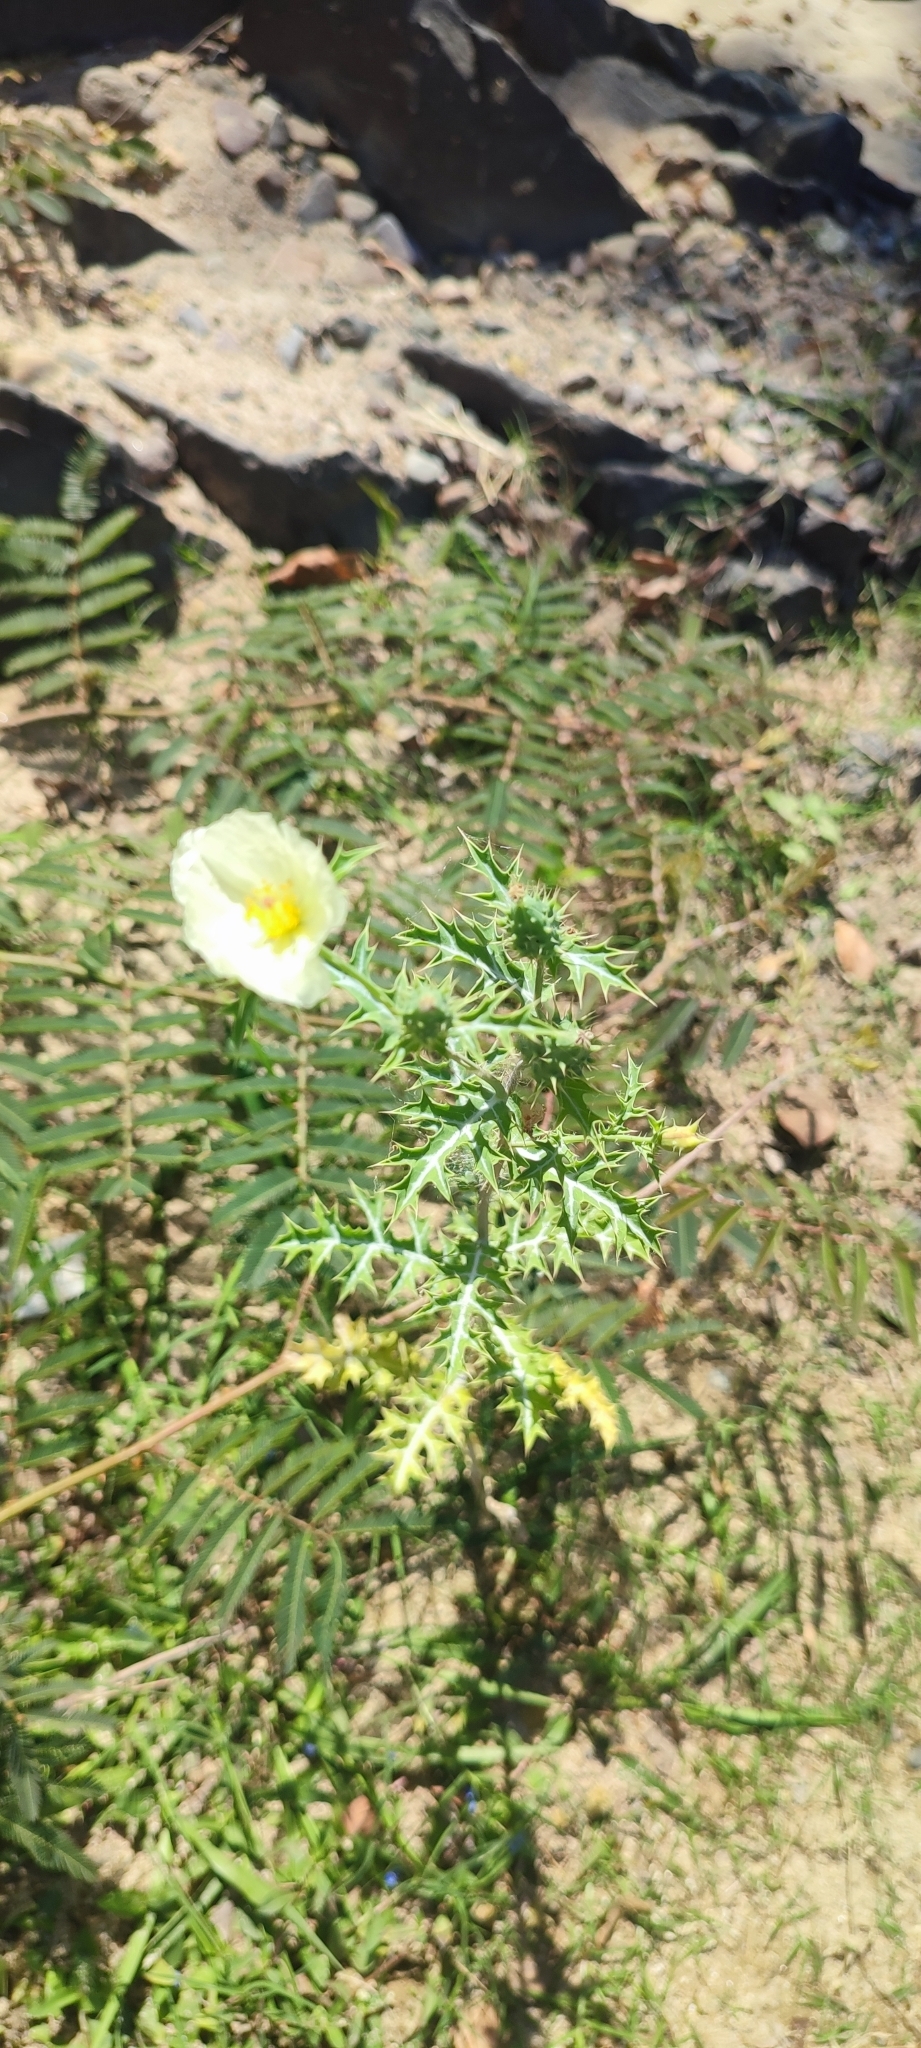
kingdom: Plantae
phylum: Tracheophyta
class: Magnoliopsida
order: Ranunculales
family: Papaveraceae
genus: Argemone
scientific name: Argemone ochroleuca
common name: White-flower mexican-poppy
